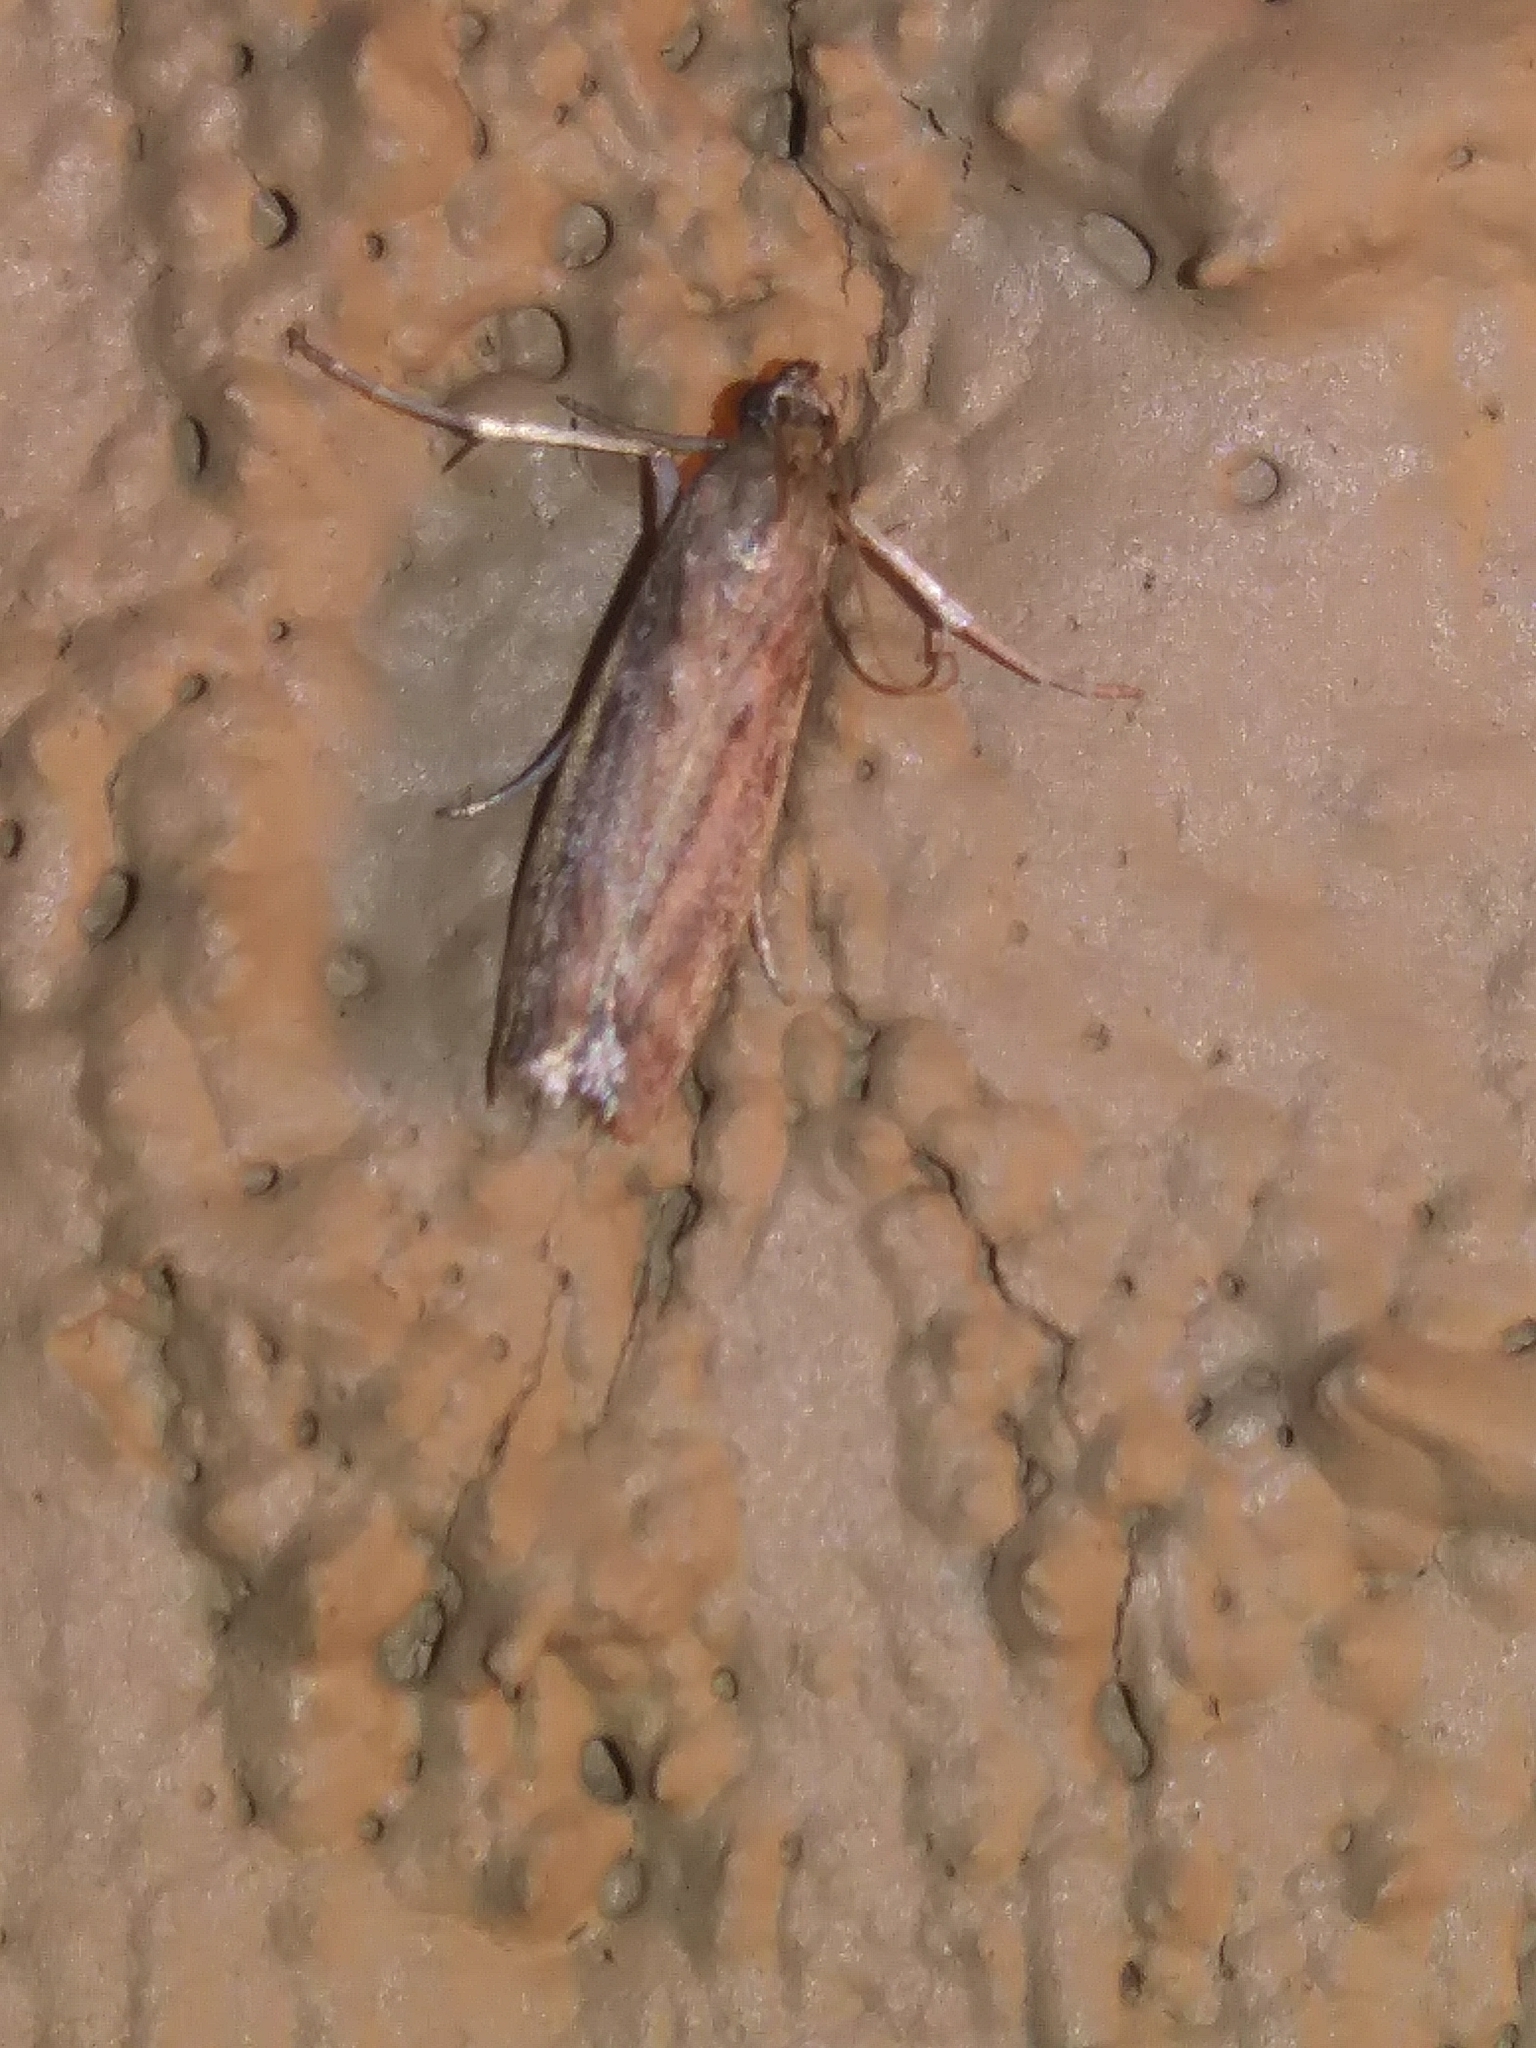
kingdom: Animalia
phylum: Arthropoda
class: Insecta
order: Lepidoptera
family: Pyralidae
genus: Homoeosoma
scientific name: Homoeosoma deceptorium
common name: Black-banded homoeosoma moth
